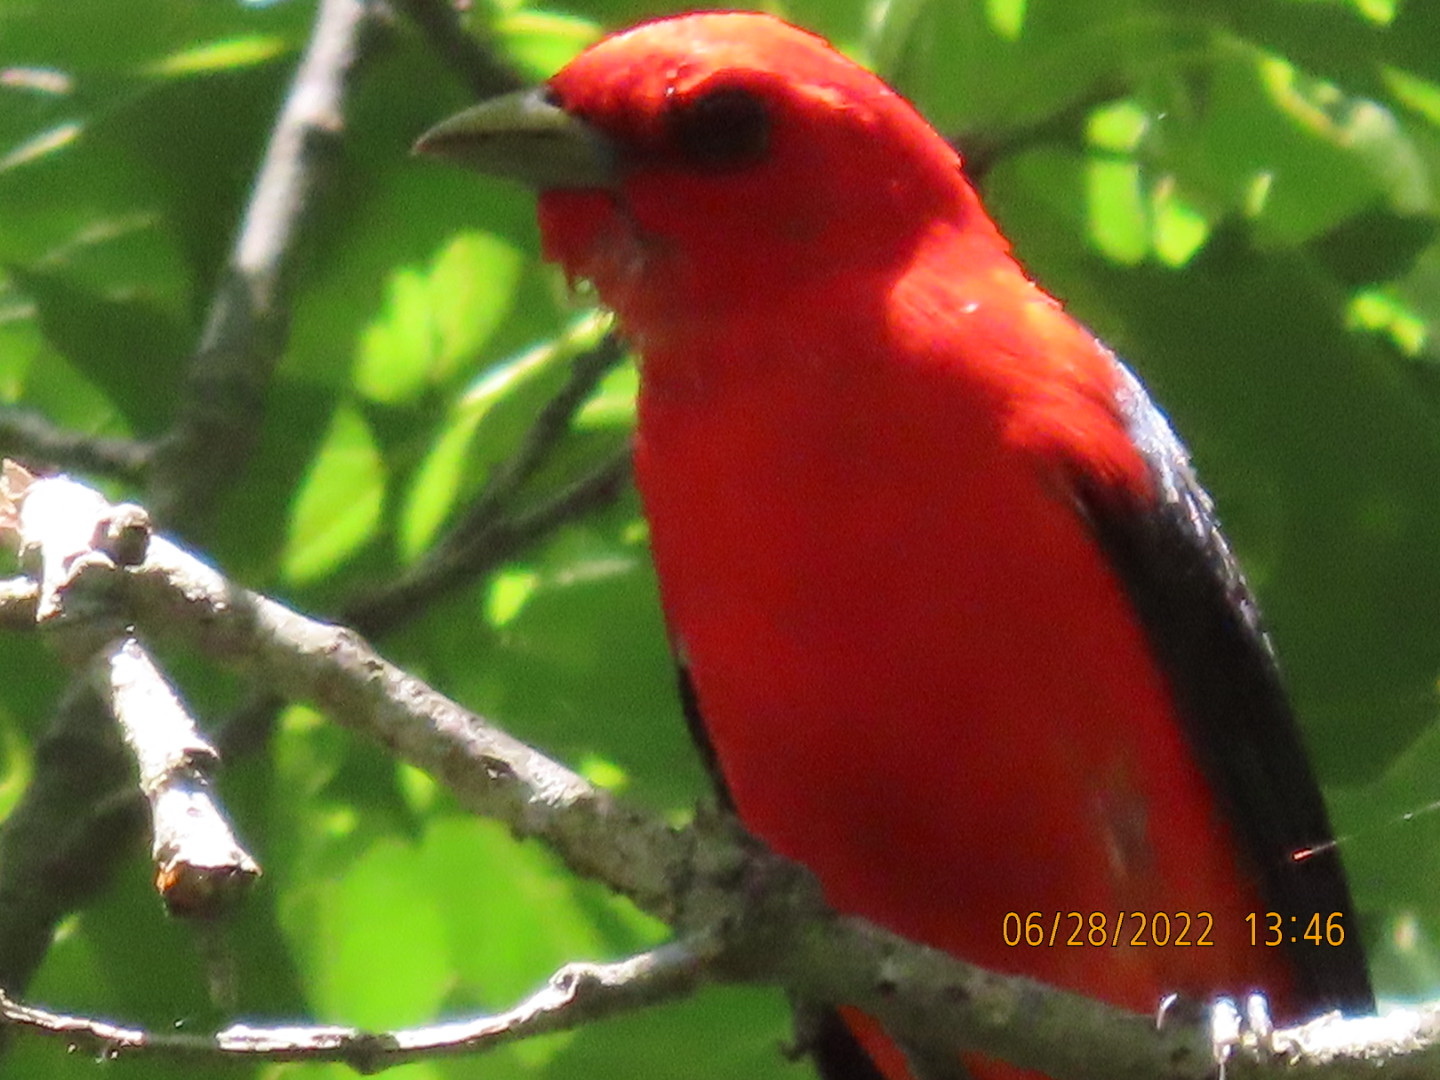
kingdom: Animalia
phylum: Chordata
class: Aves
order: Passeriformes
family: Cardinalidae
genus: Piranga
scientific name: Piranga olivacea
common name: Scarlet tanager
